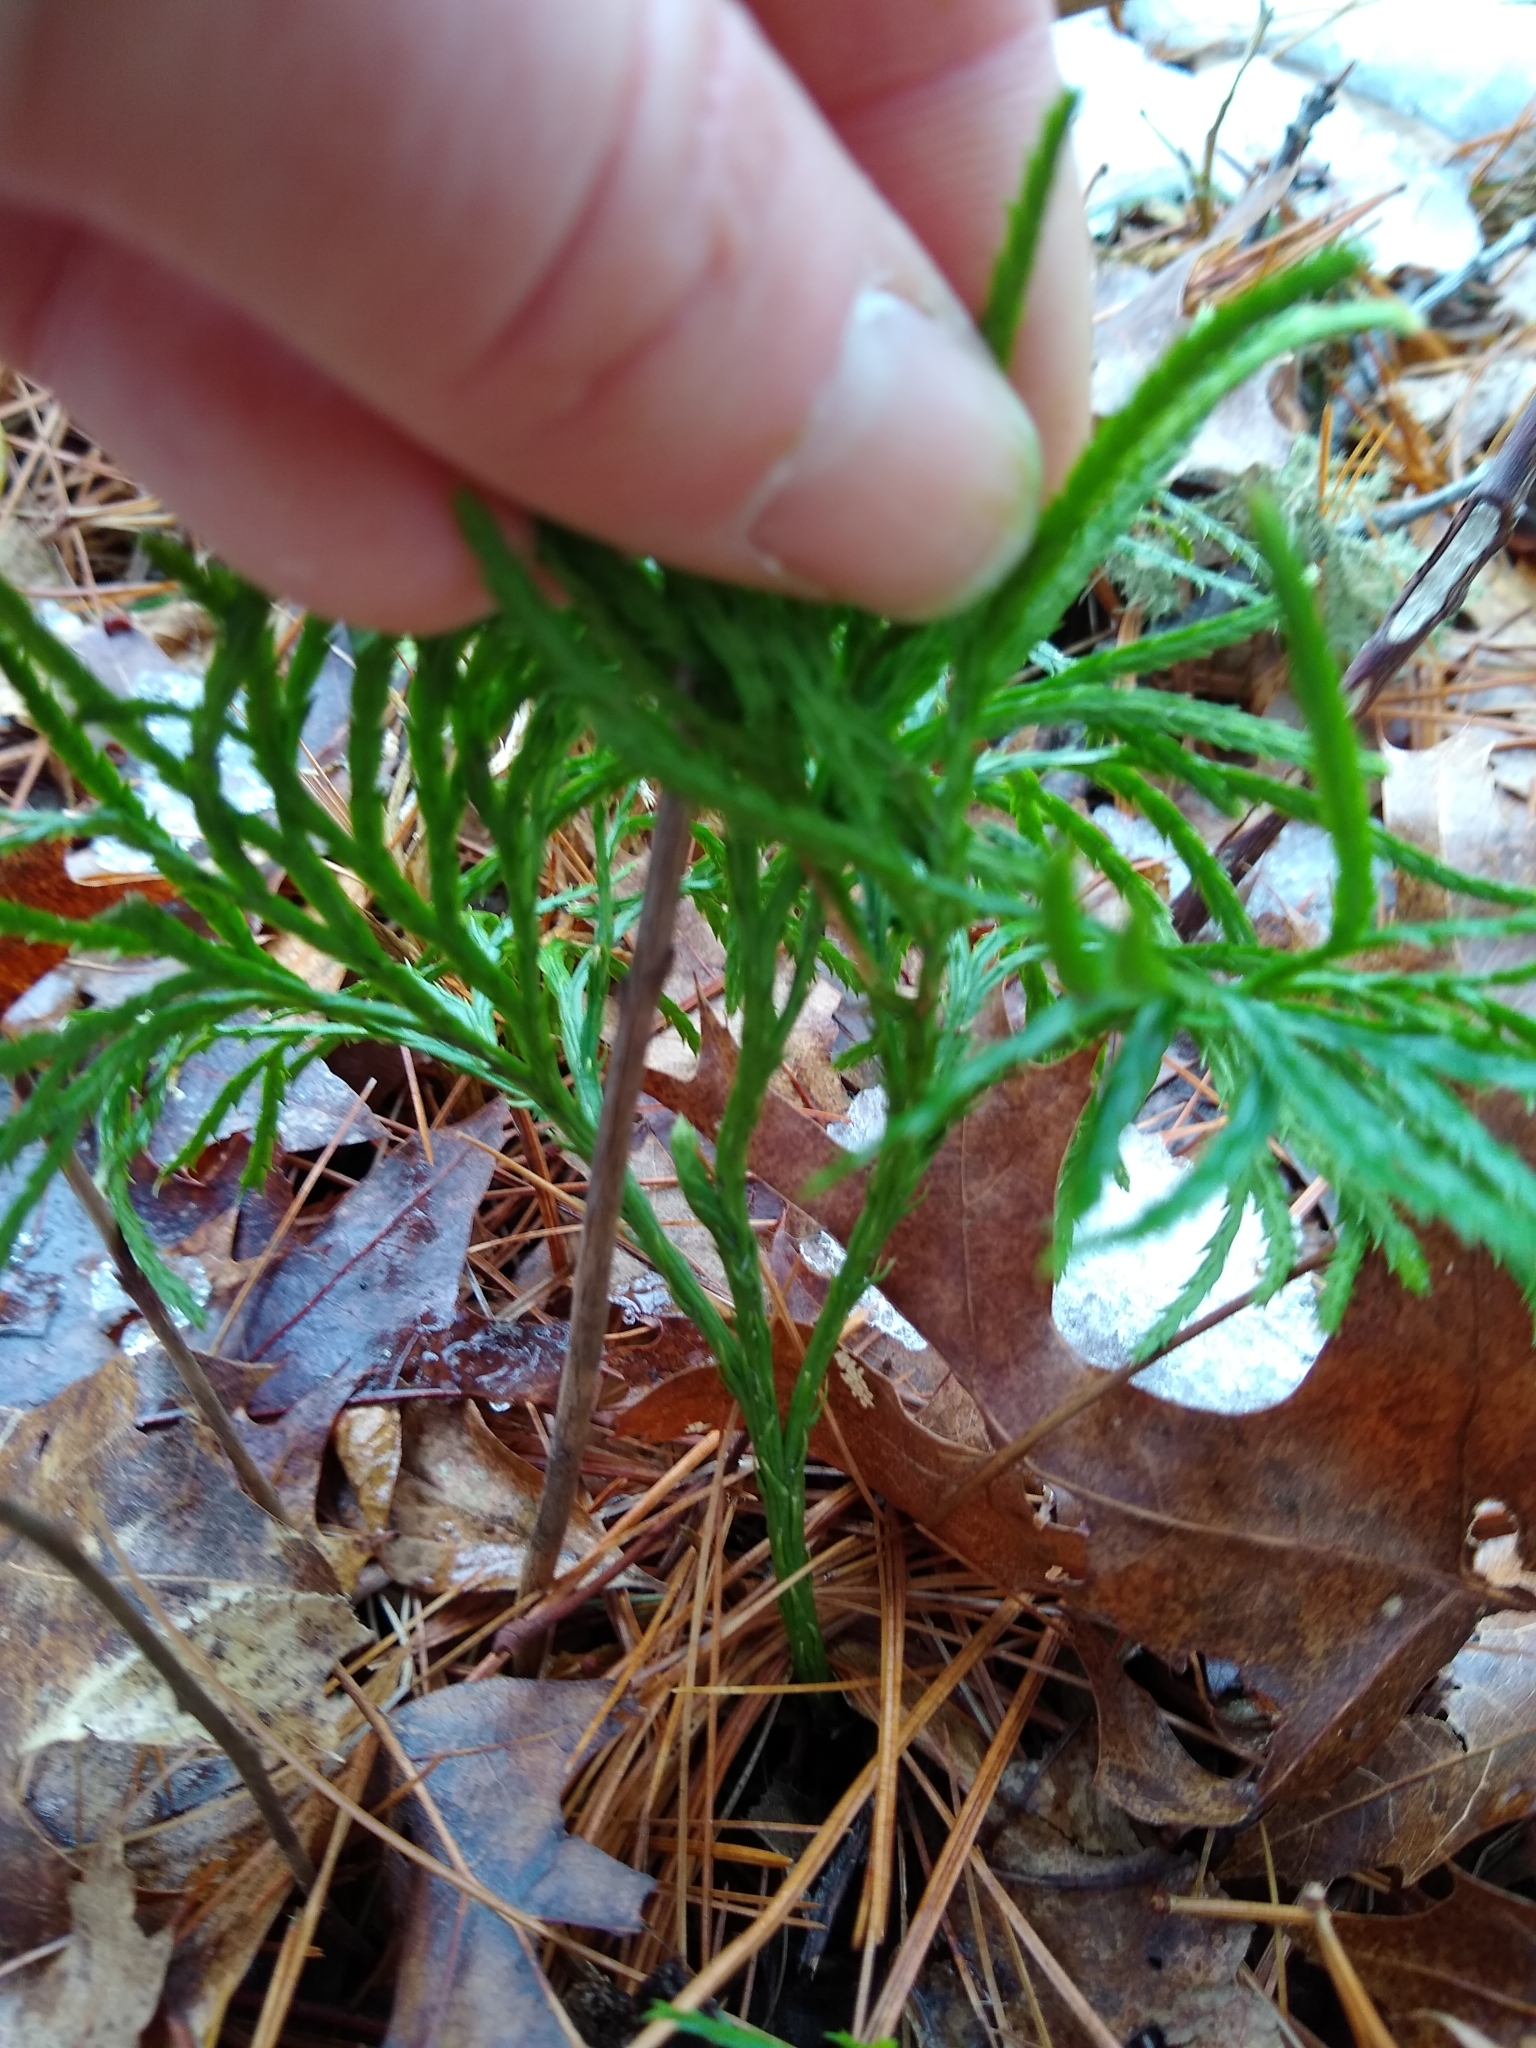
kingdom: Plantae
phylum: Tracheophyta
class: Lycopodiopsida
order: Lycopodiales
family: Lycopodiaceae
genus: Diphasiastrum
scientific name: Diphasiastrum digitatum
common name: Southern running-pine
